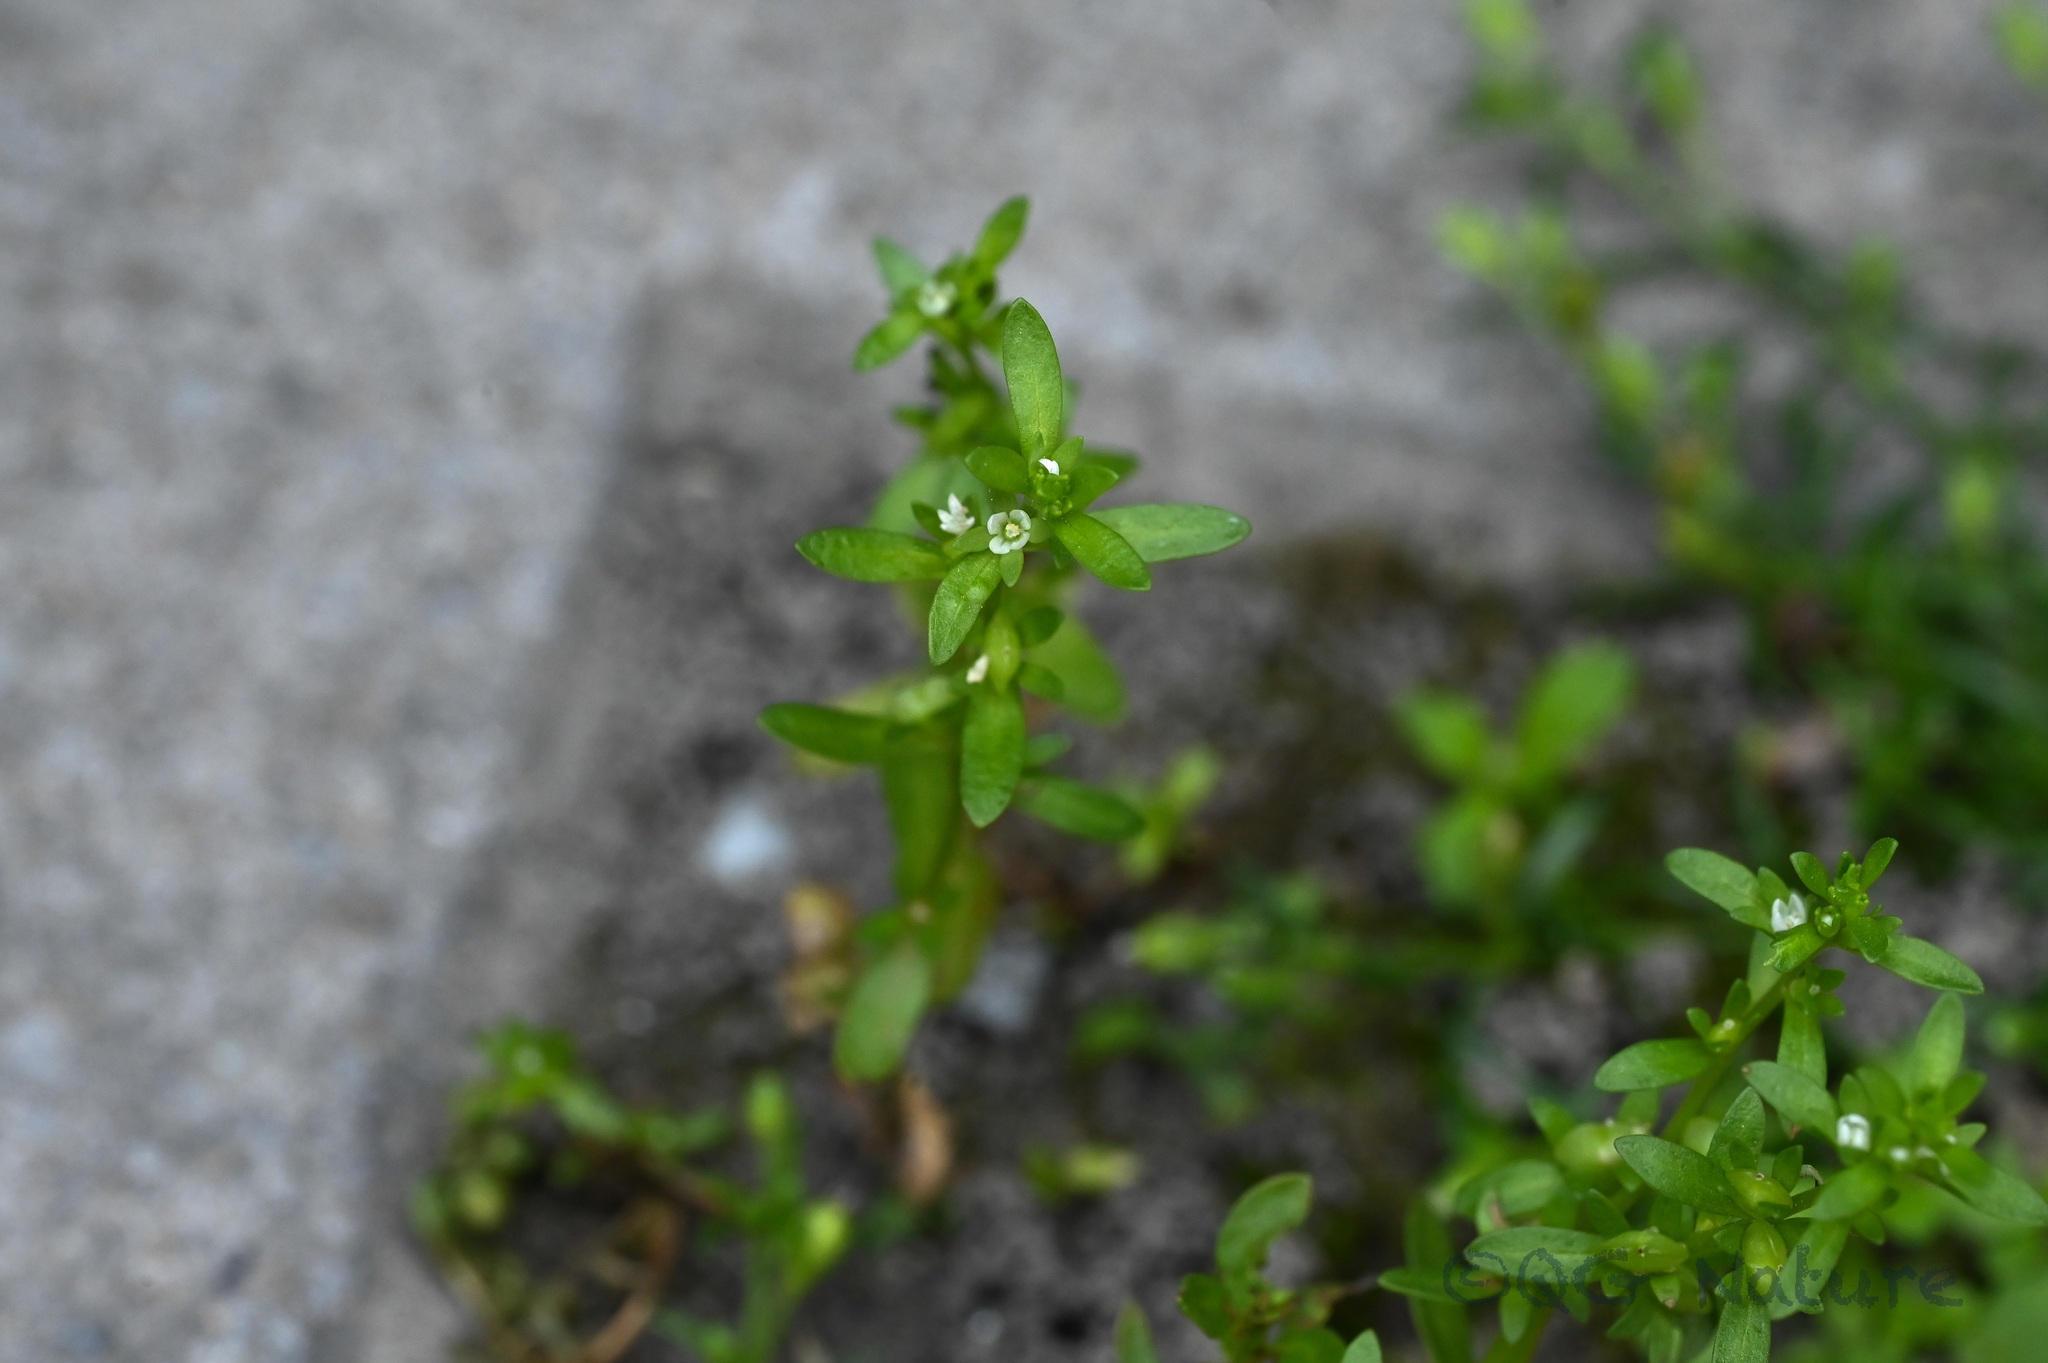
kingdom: Plantae
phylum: Tracheophyta
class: Magnoliopsida
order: Lamiales
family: Plantaginaceae
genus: Veronica
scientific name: Veronica peregrina
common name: Neckweed
